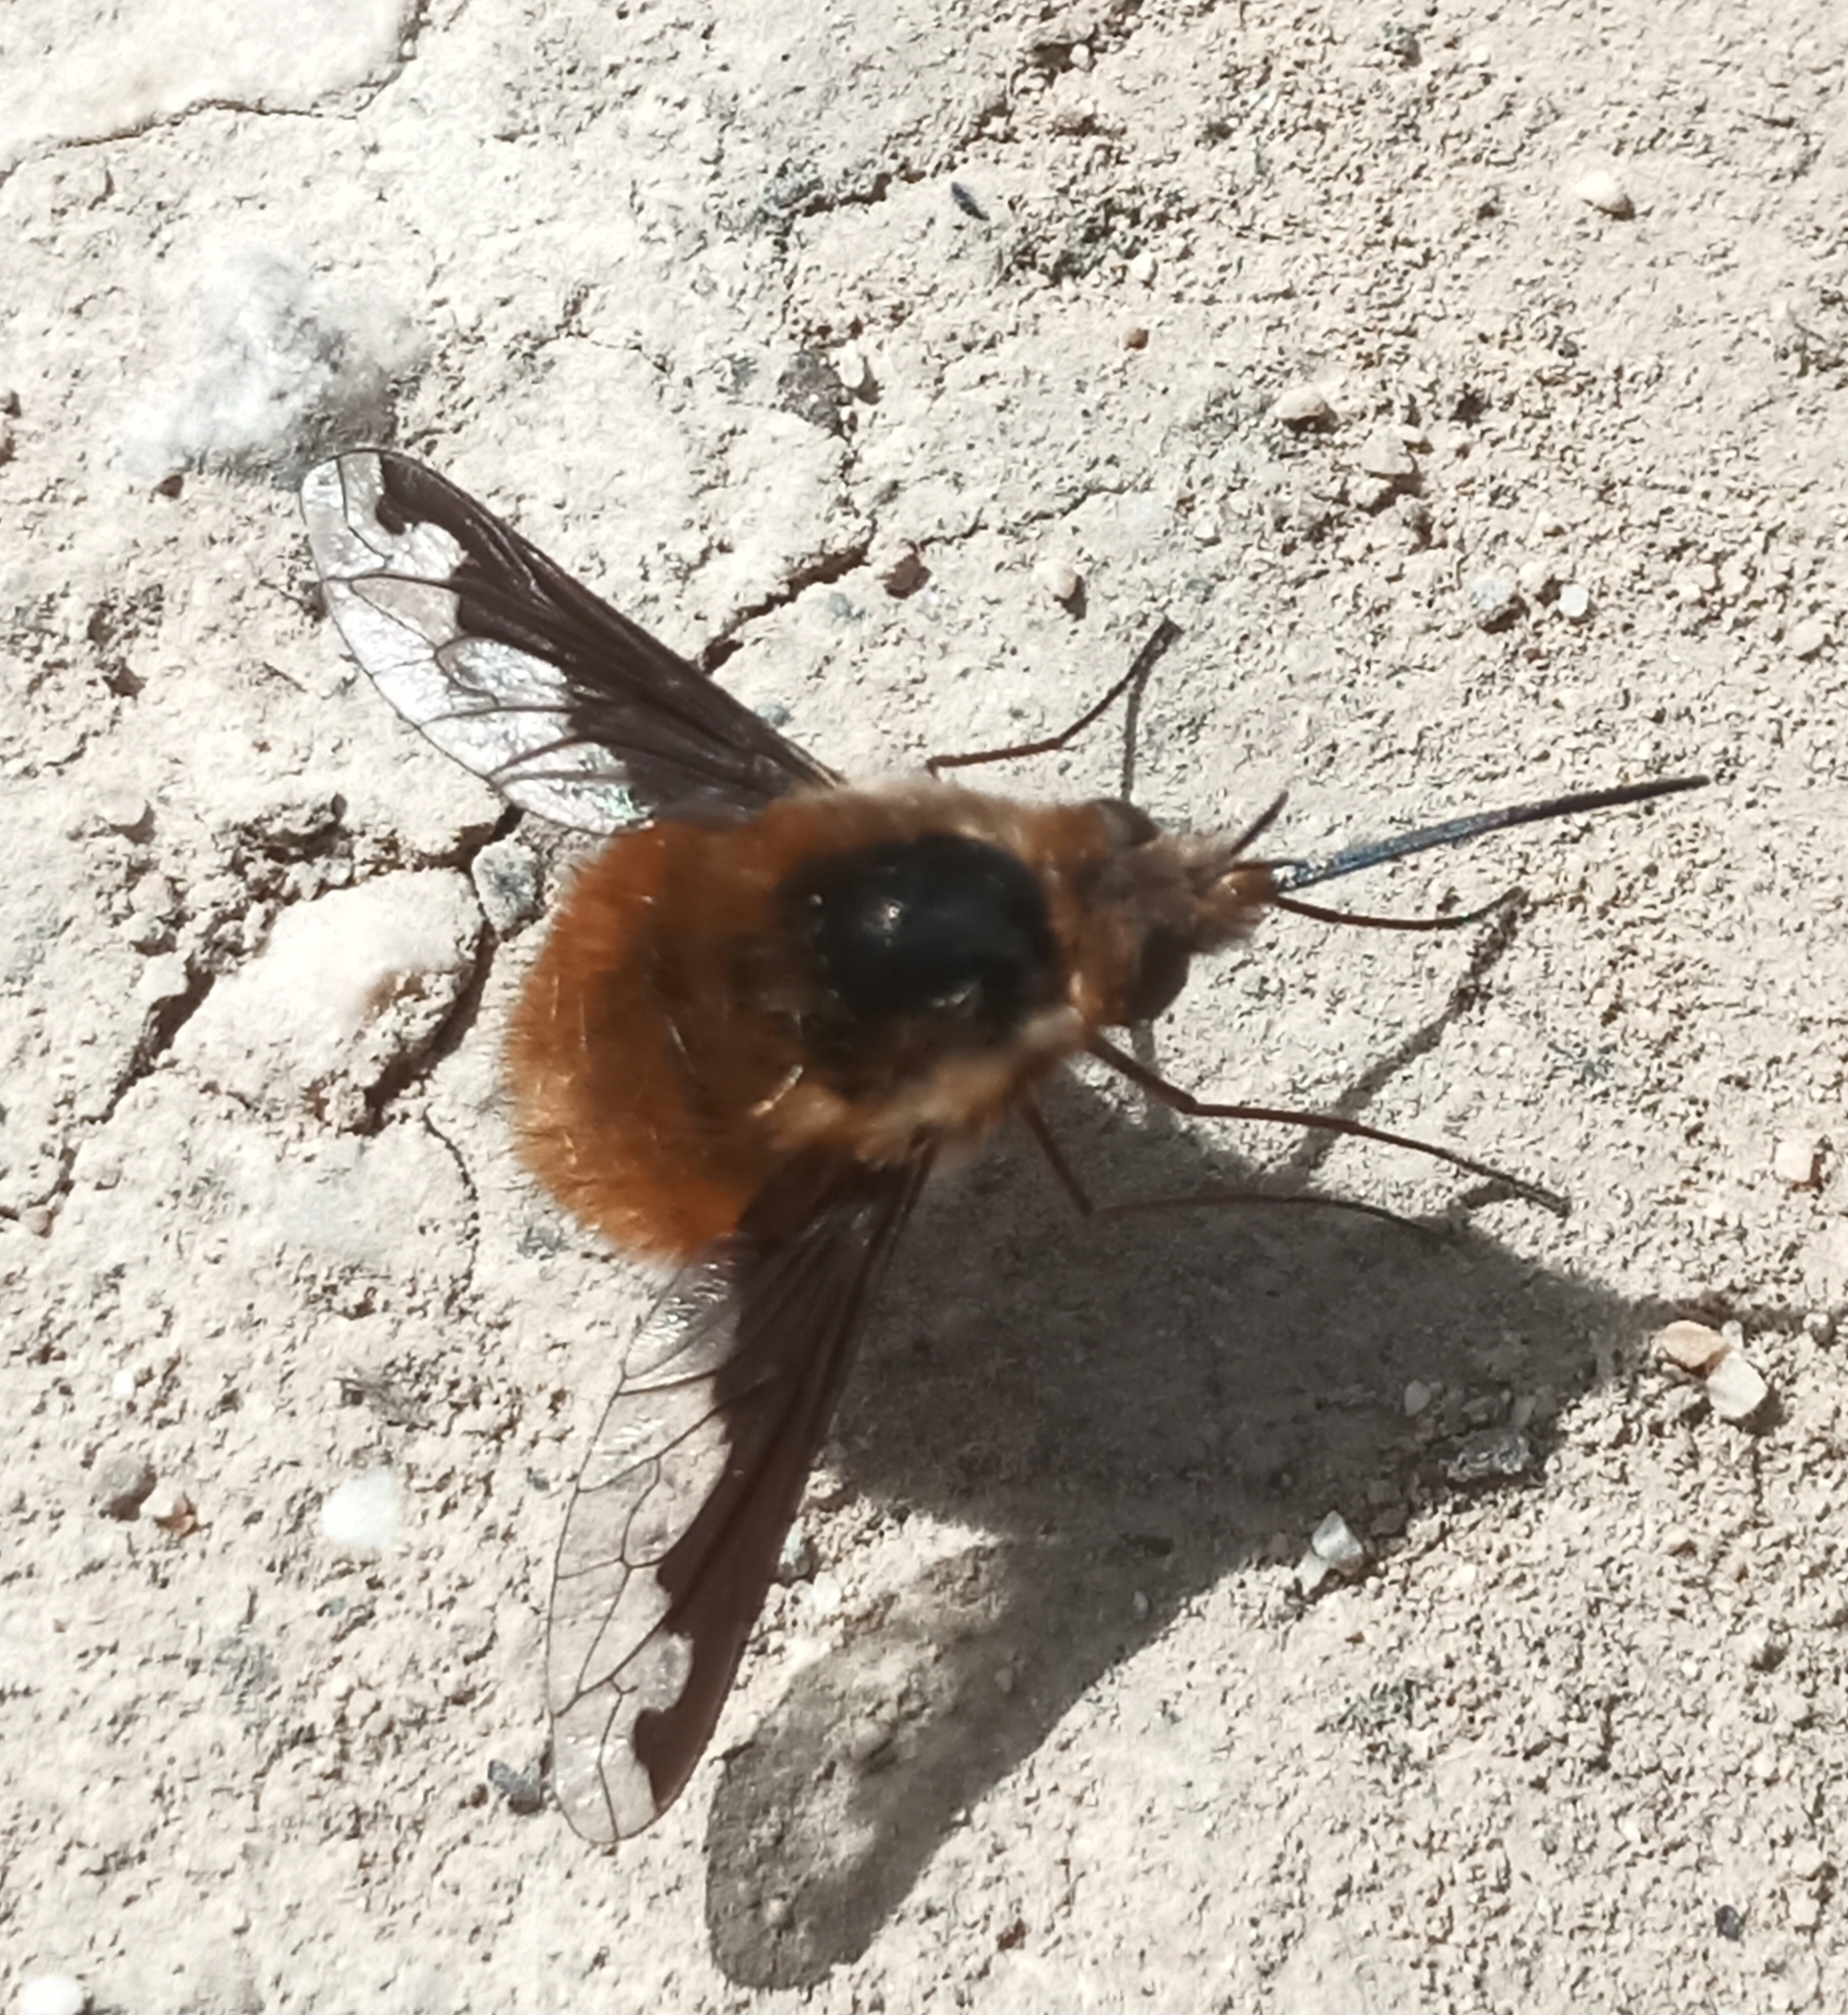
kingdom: Animalia
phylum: Arthropoda
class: Insecta
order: Diptera
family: Bombyliidae
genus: Bombylius
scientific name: Bombylius major
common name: Bee fly
